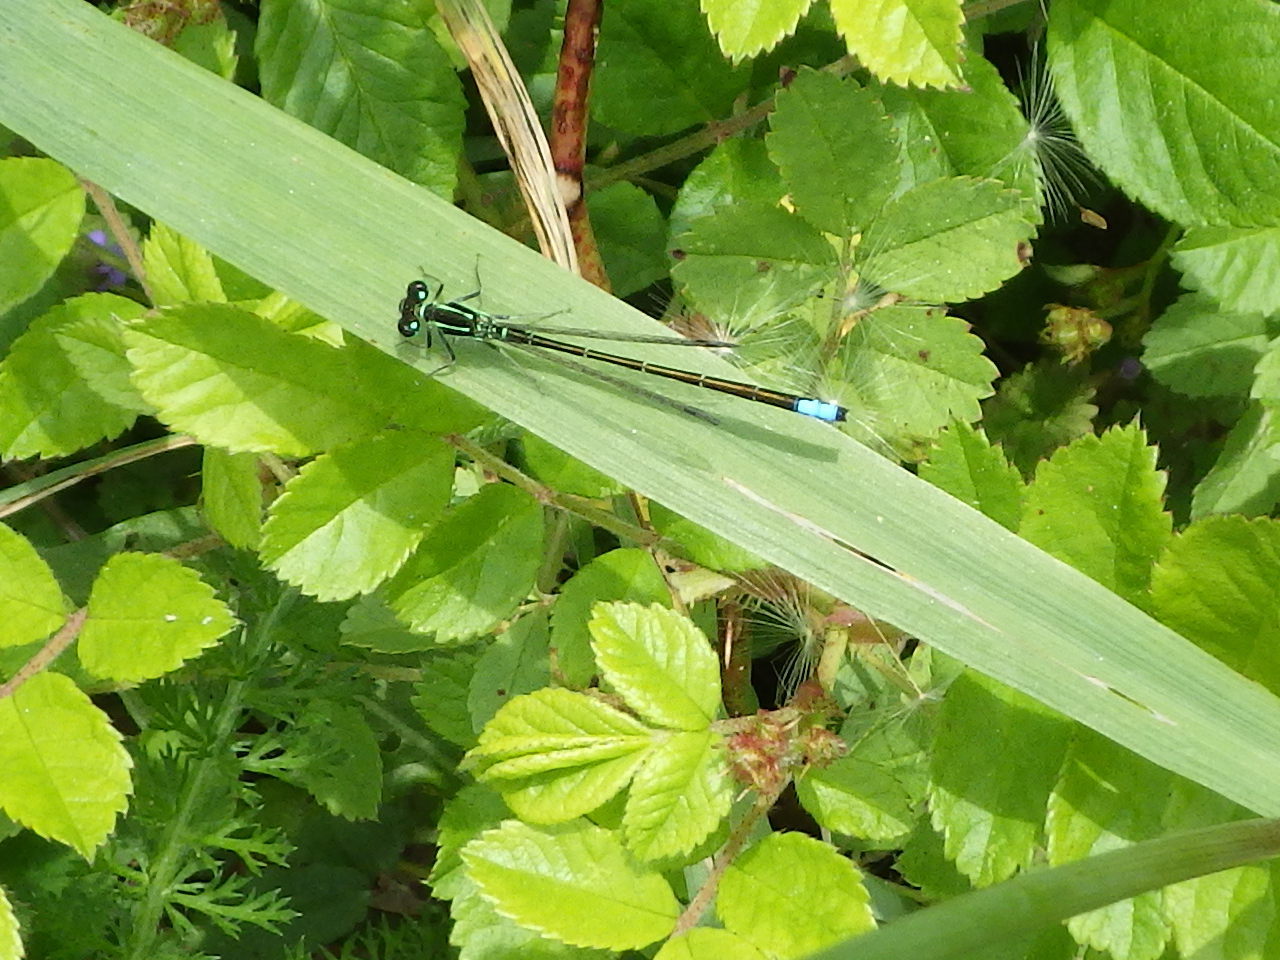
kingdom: Animalia
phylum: Arthropoda
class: Insecta
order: Odonata
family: Coenagrionidae
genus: Ischnura
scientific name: Ischnura verticalis
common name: Eastern forktail
